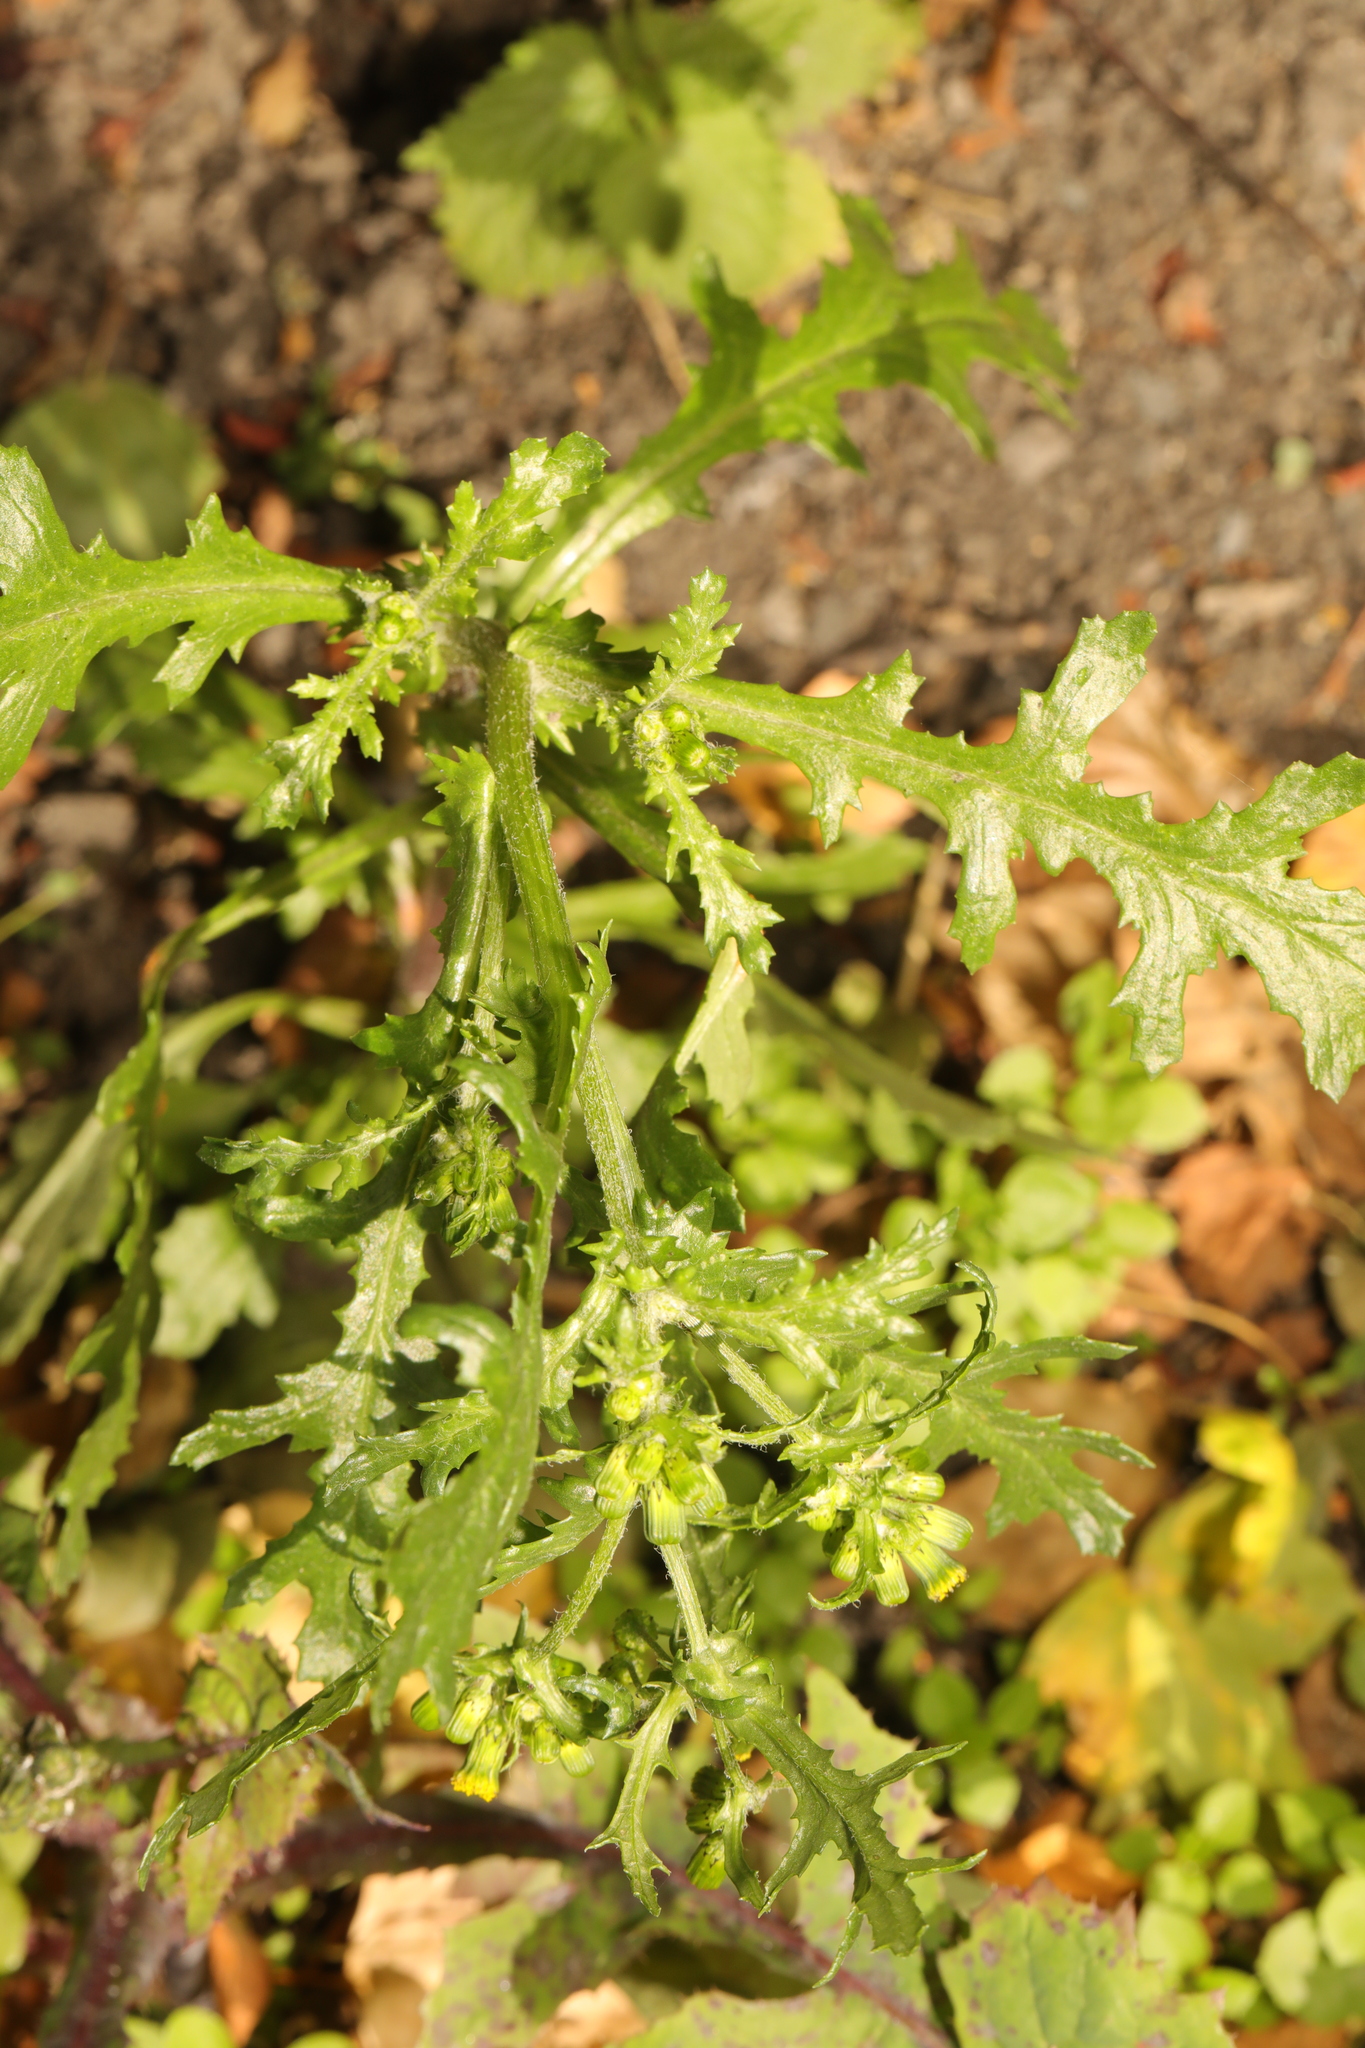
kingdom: Plantae
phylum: Tracheophyta
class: Magnoliopsida
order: Asterales
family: Asteraceae
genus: Senecio
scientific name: Senecio vulgaris
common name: Old-man-in-the-spring
